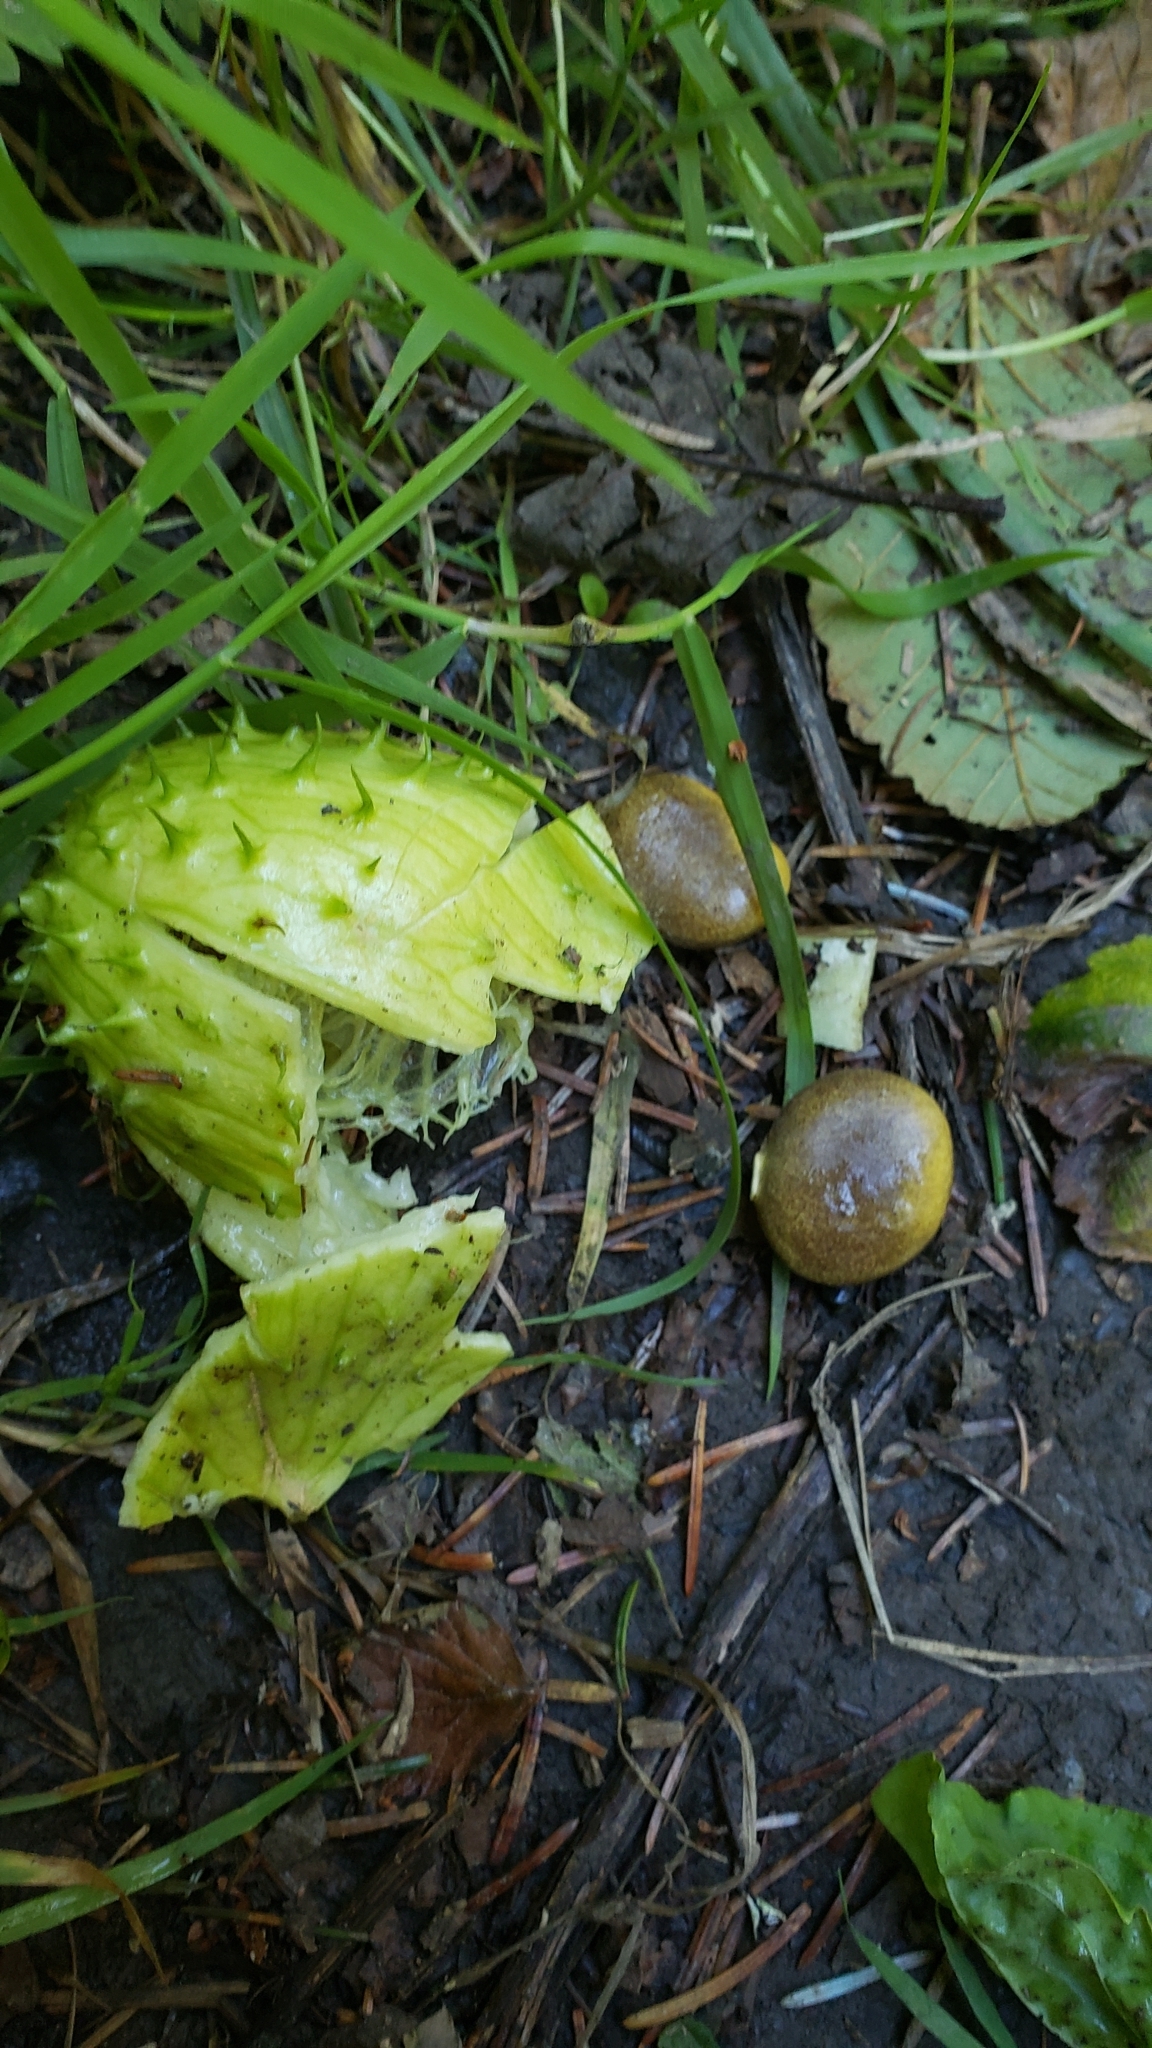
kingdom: Plantae
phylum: Tracheophyta
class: Magnoliopsida
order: Cucurbitales
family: Cucurbitaceae
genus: Marah
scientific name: Marah oregana
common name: Coastal manroot
